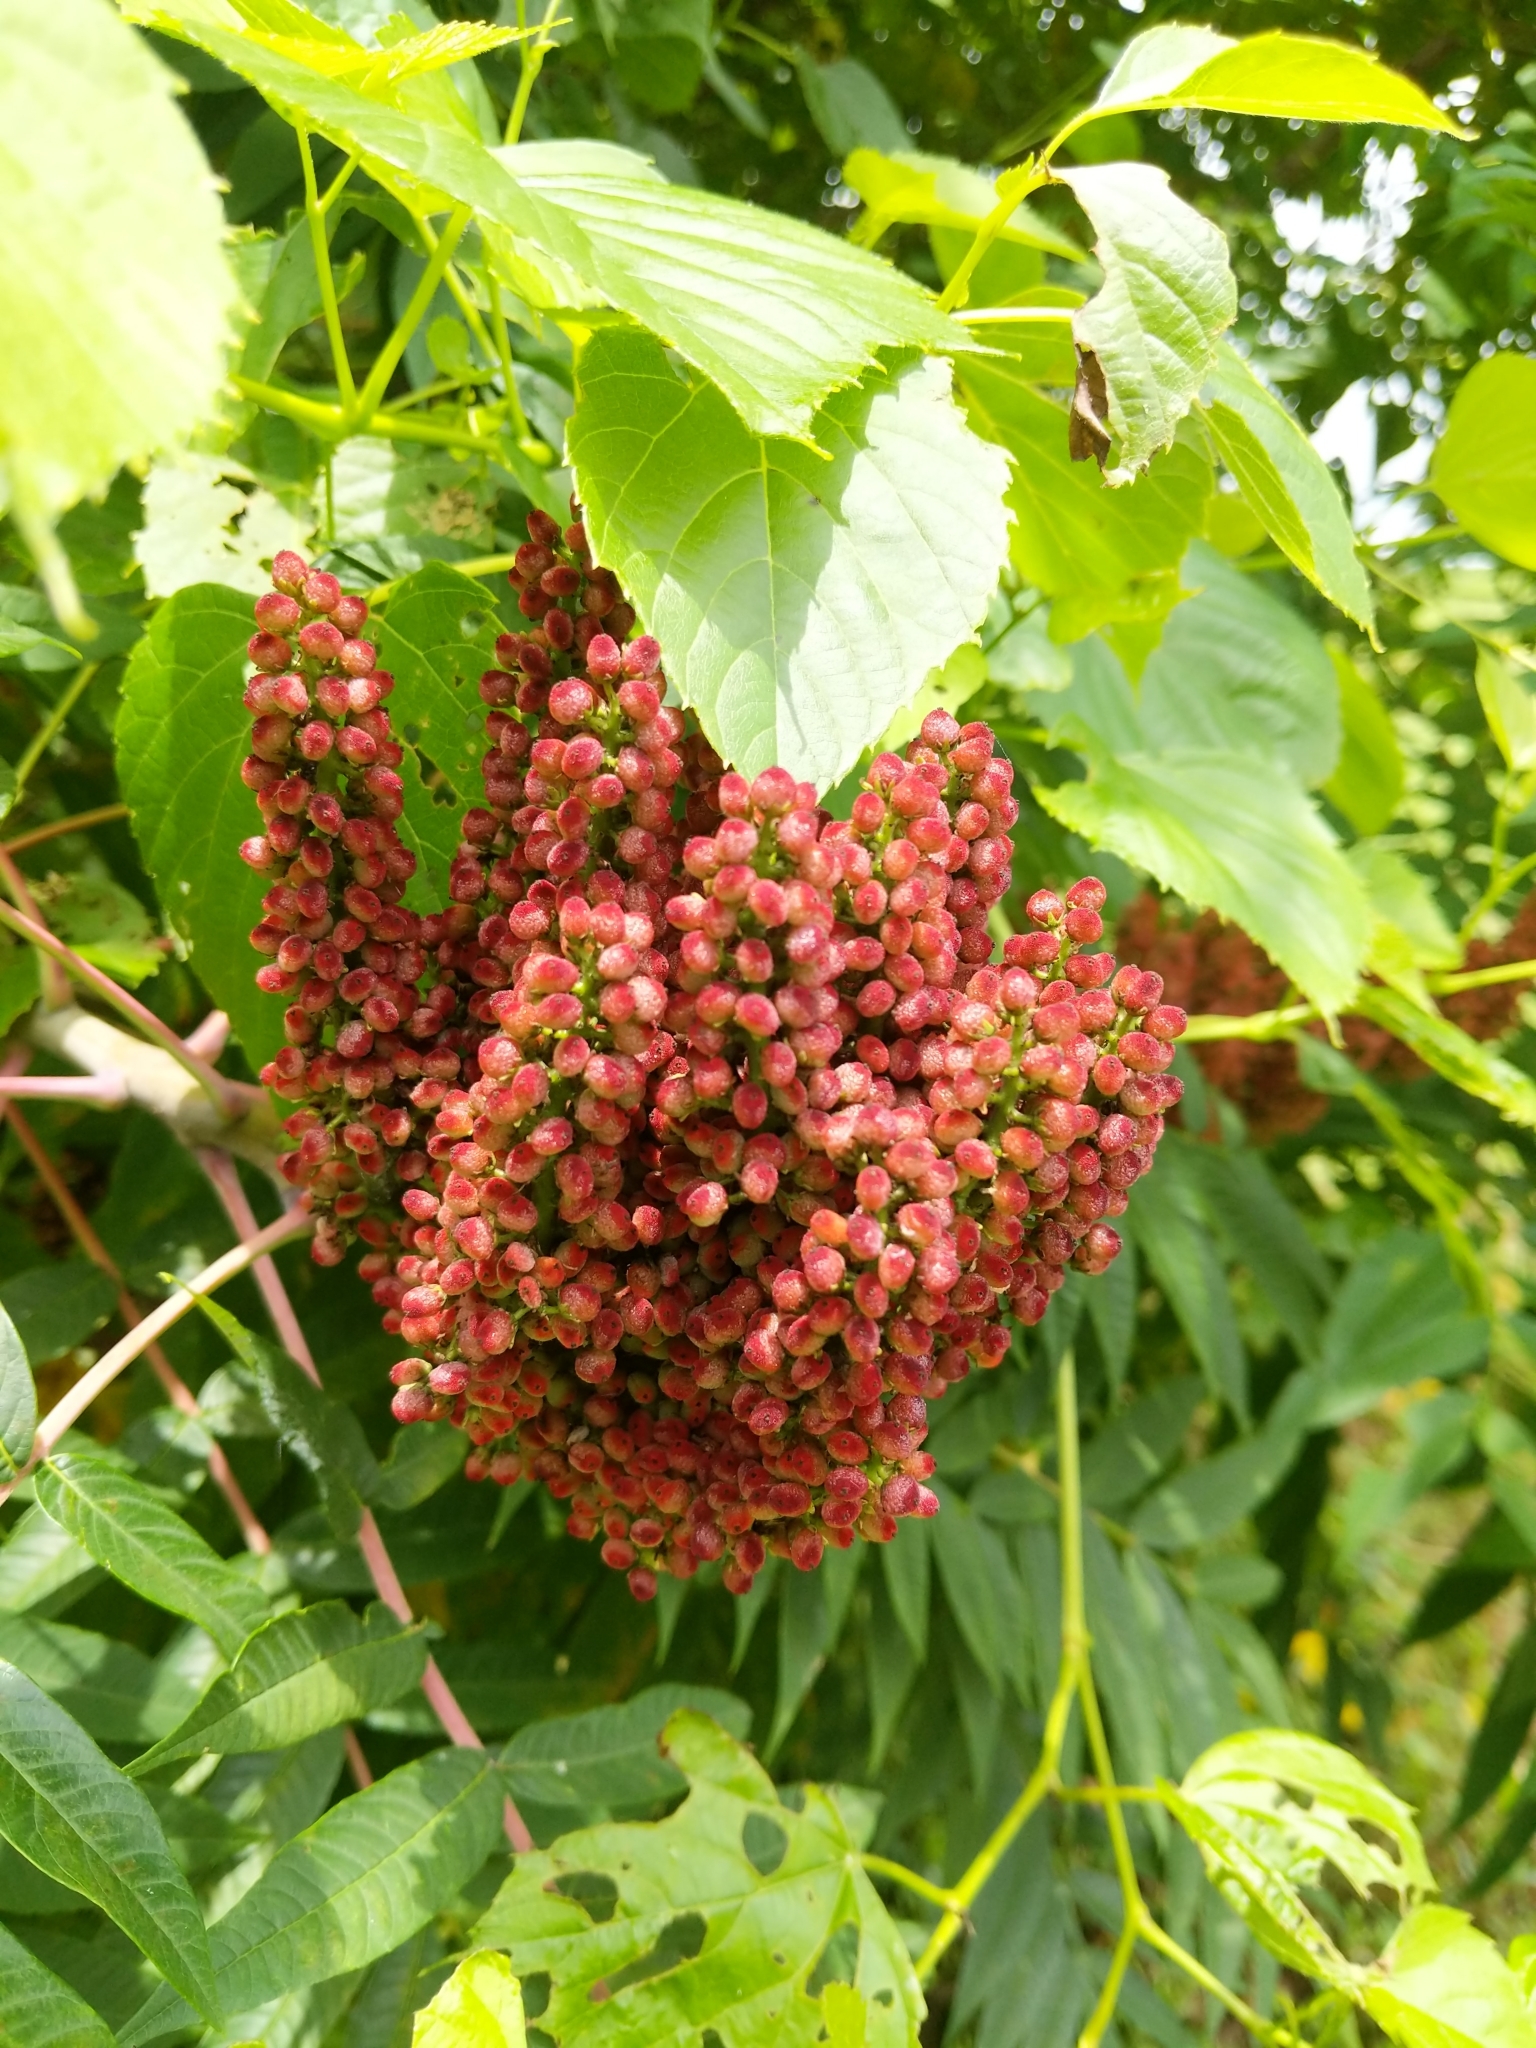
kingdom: Animalia
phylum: Arthropoda
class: Insecta
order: Hemiptera
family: Aphididae
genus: Melaphis
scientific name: Melaphis rhois
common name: Sumac gall aphid
